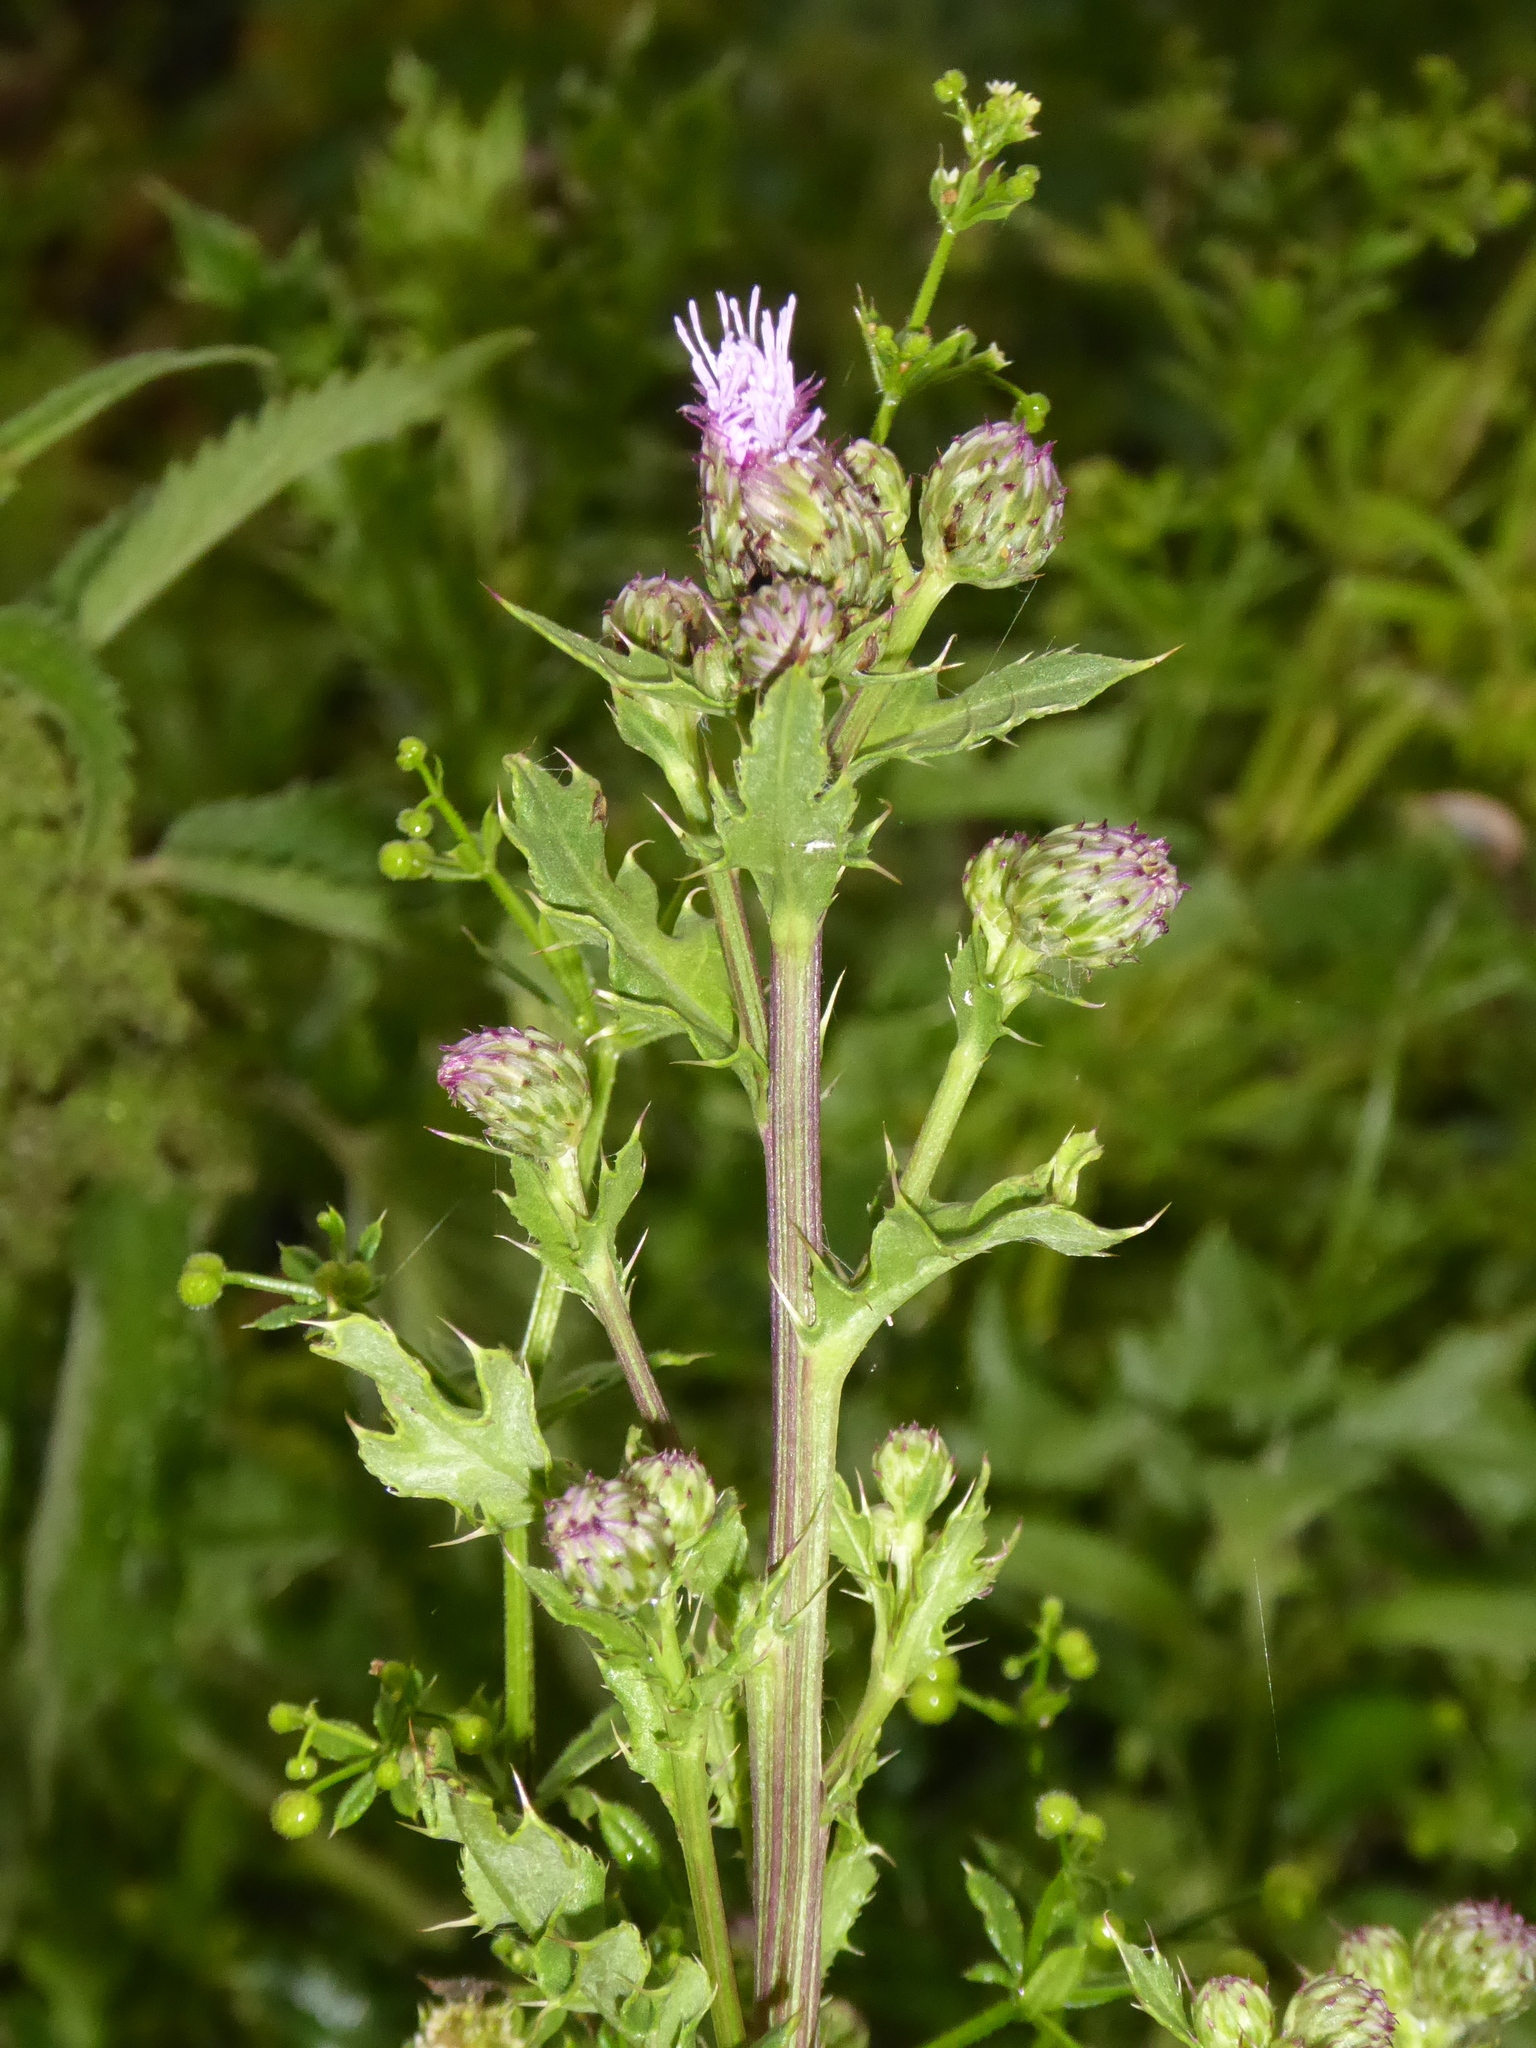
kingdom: Plantae
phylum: Tracheophyta
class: Magnoliopsida
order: Asterales
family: Asteraceae
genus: Cirsium
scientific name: Cirsium arvense
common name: Creeping thistle
